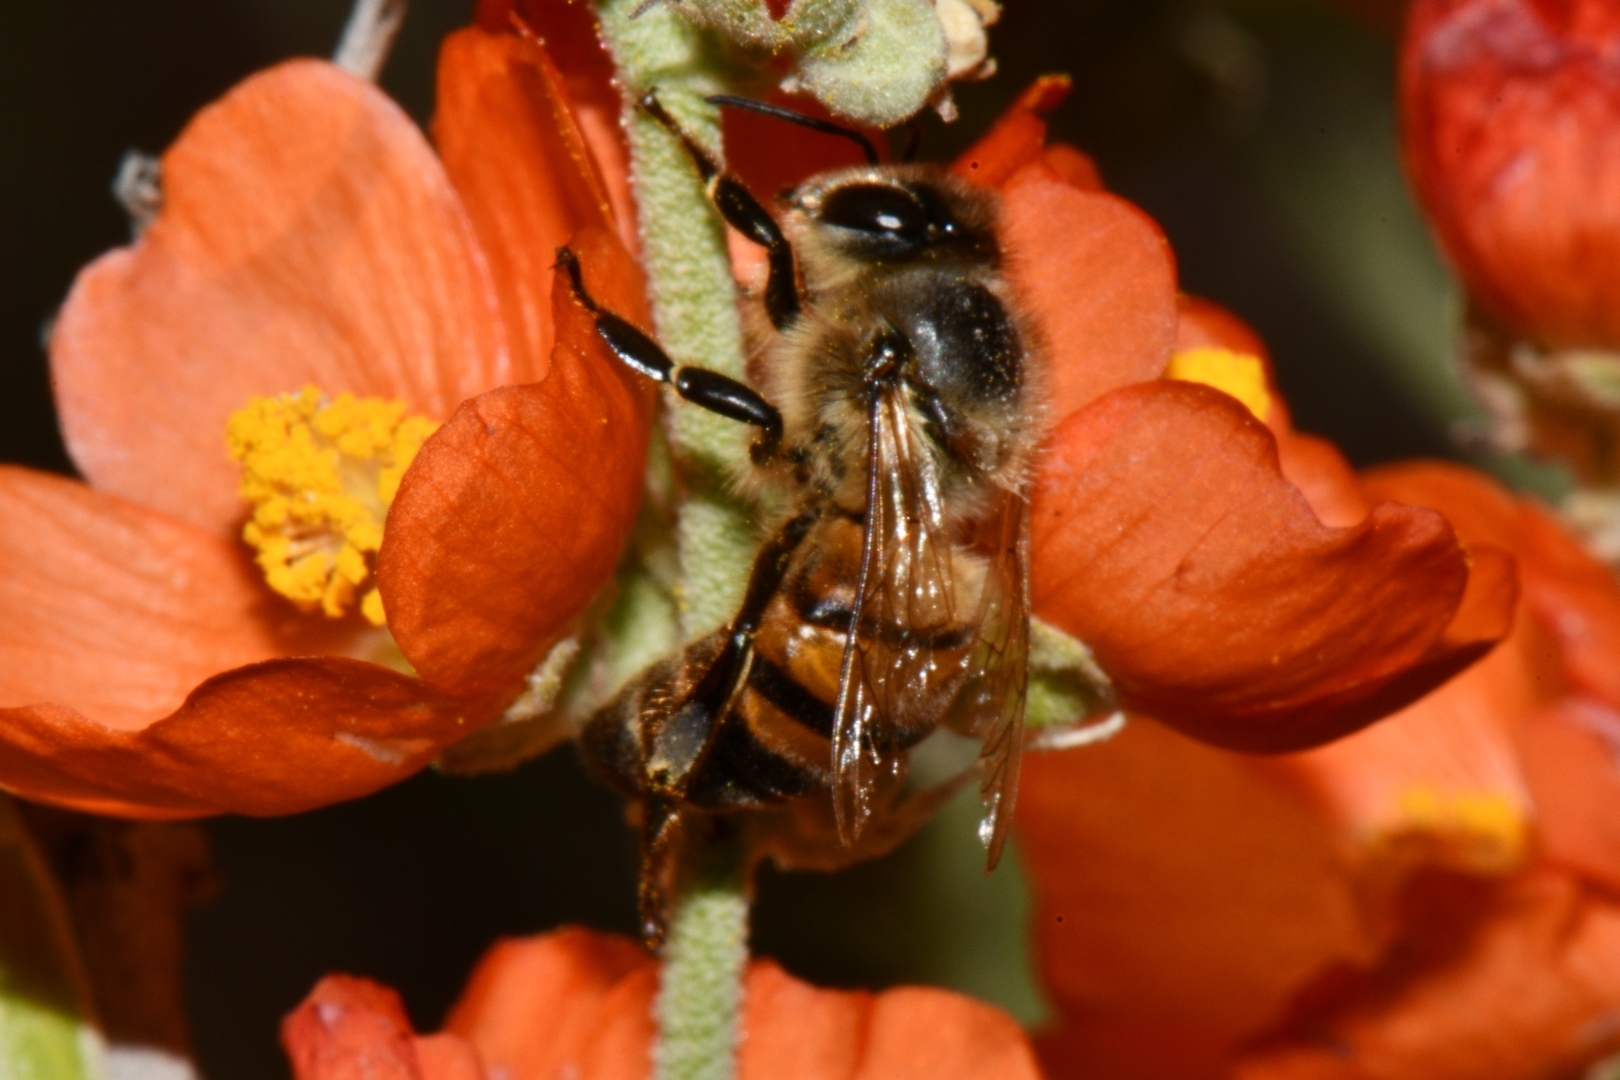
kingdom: Animalia
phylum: Arthropoda
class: Insecta
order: Hymenoptera
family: Apidae
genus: Apis
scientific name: Apis mellifera
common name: Honey bee
